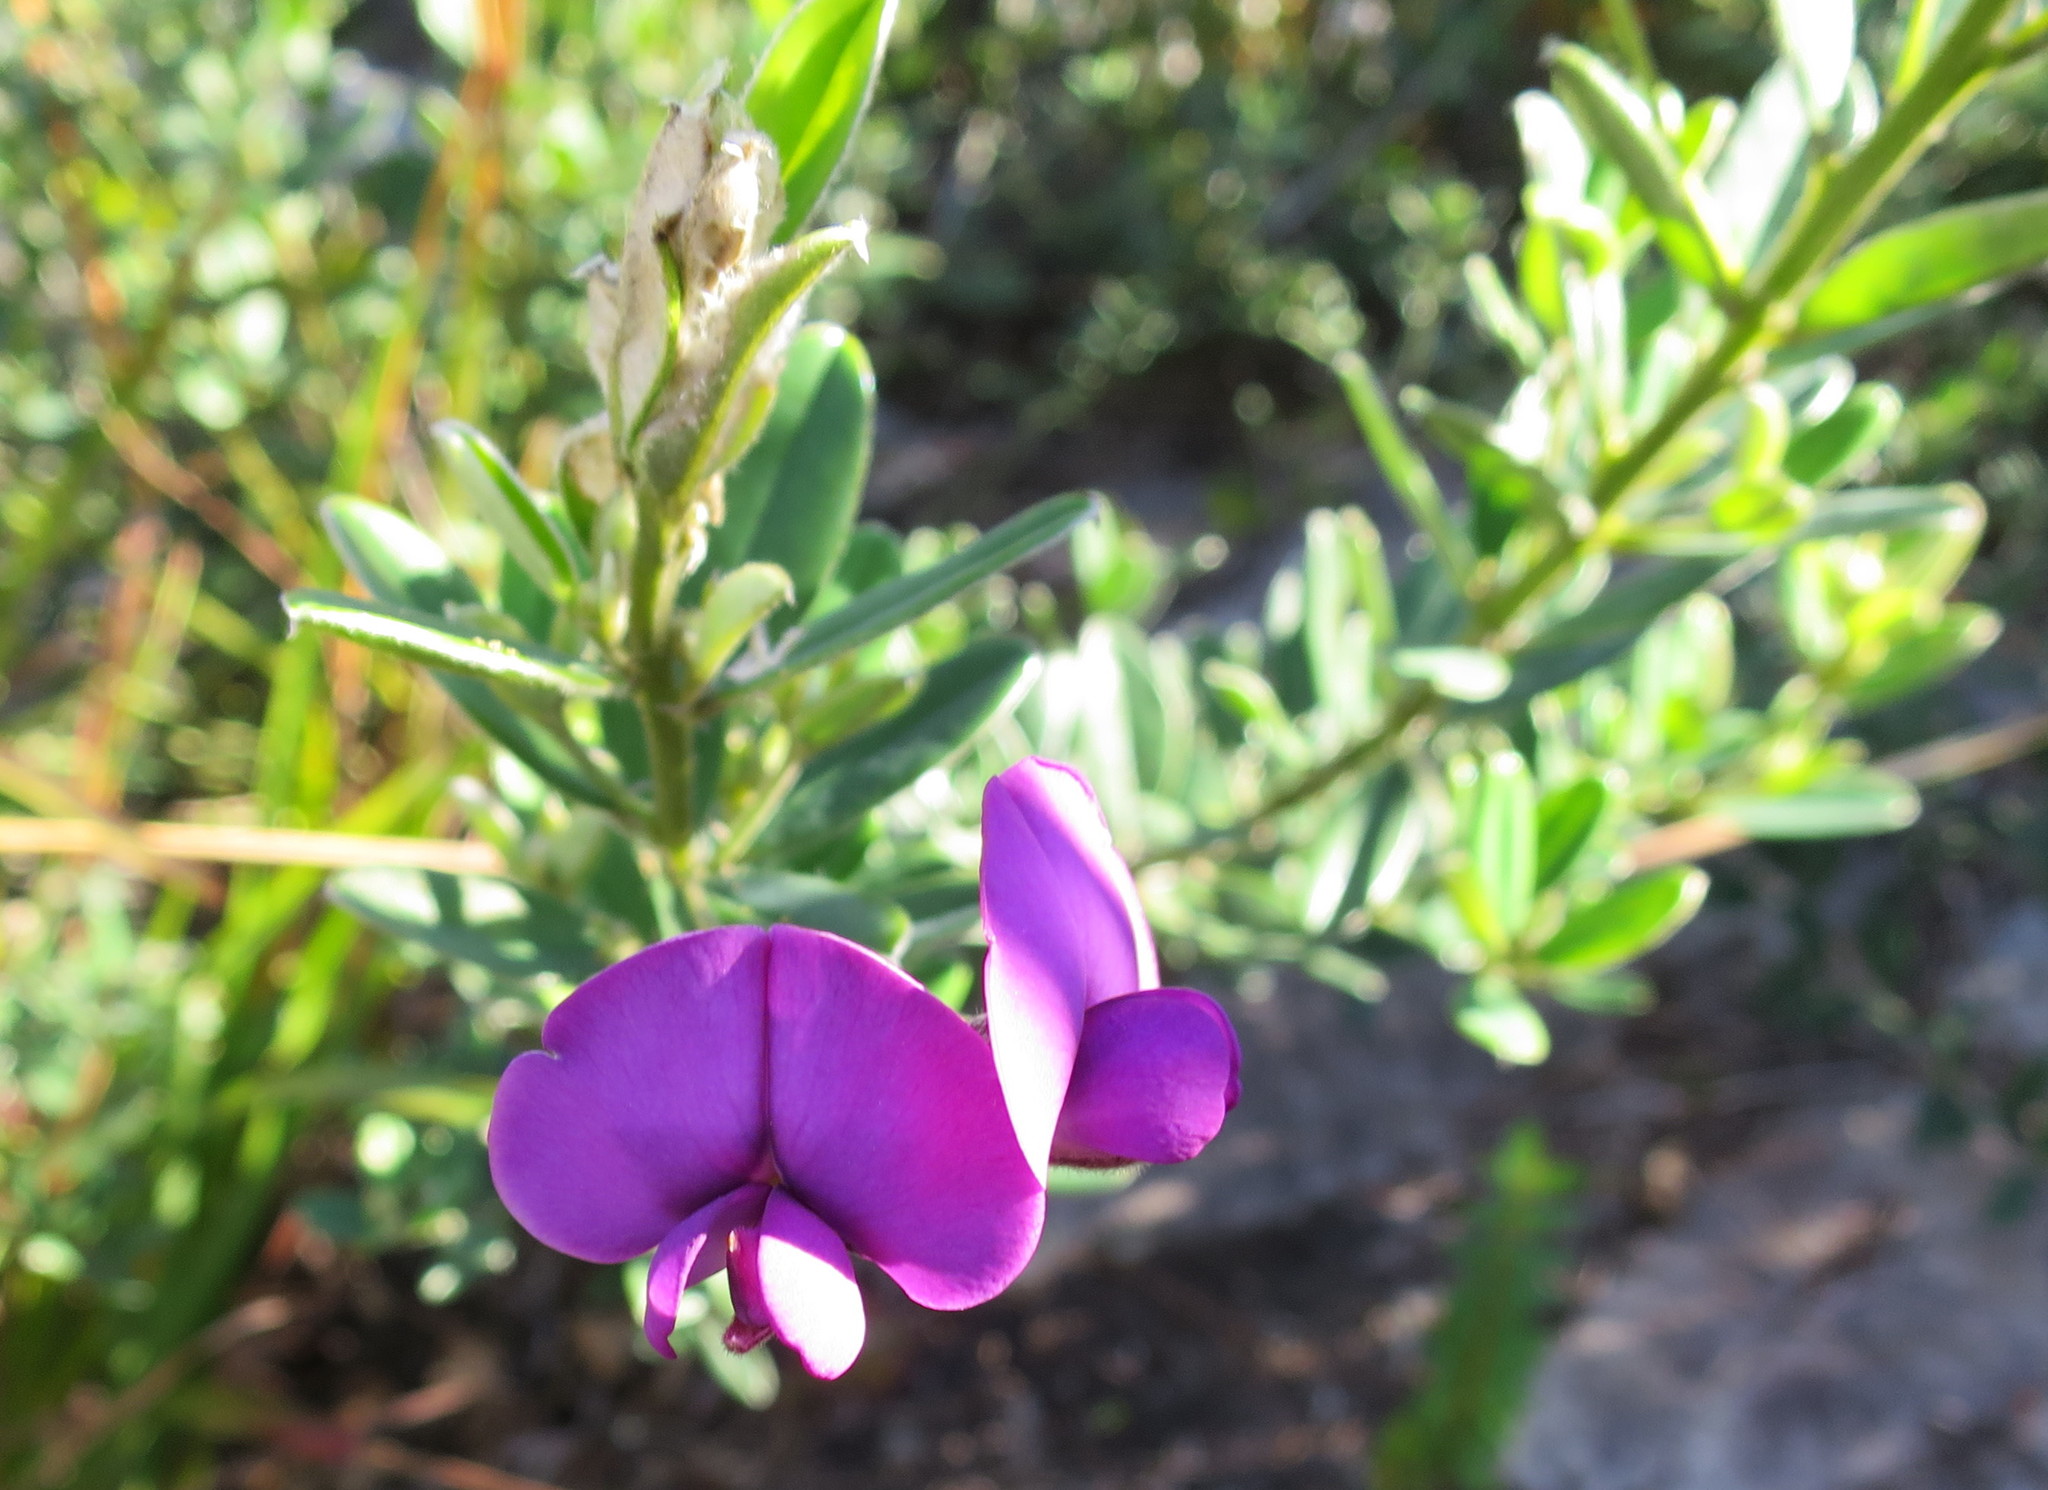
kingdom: Plantae
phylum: Tracheophyta
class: Magnoliopsida
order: Fabales
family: Fabaceae
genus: Podalyria
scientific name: Podalyria buxifolia
